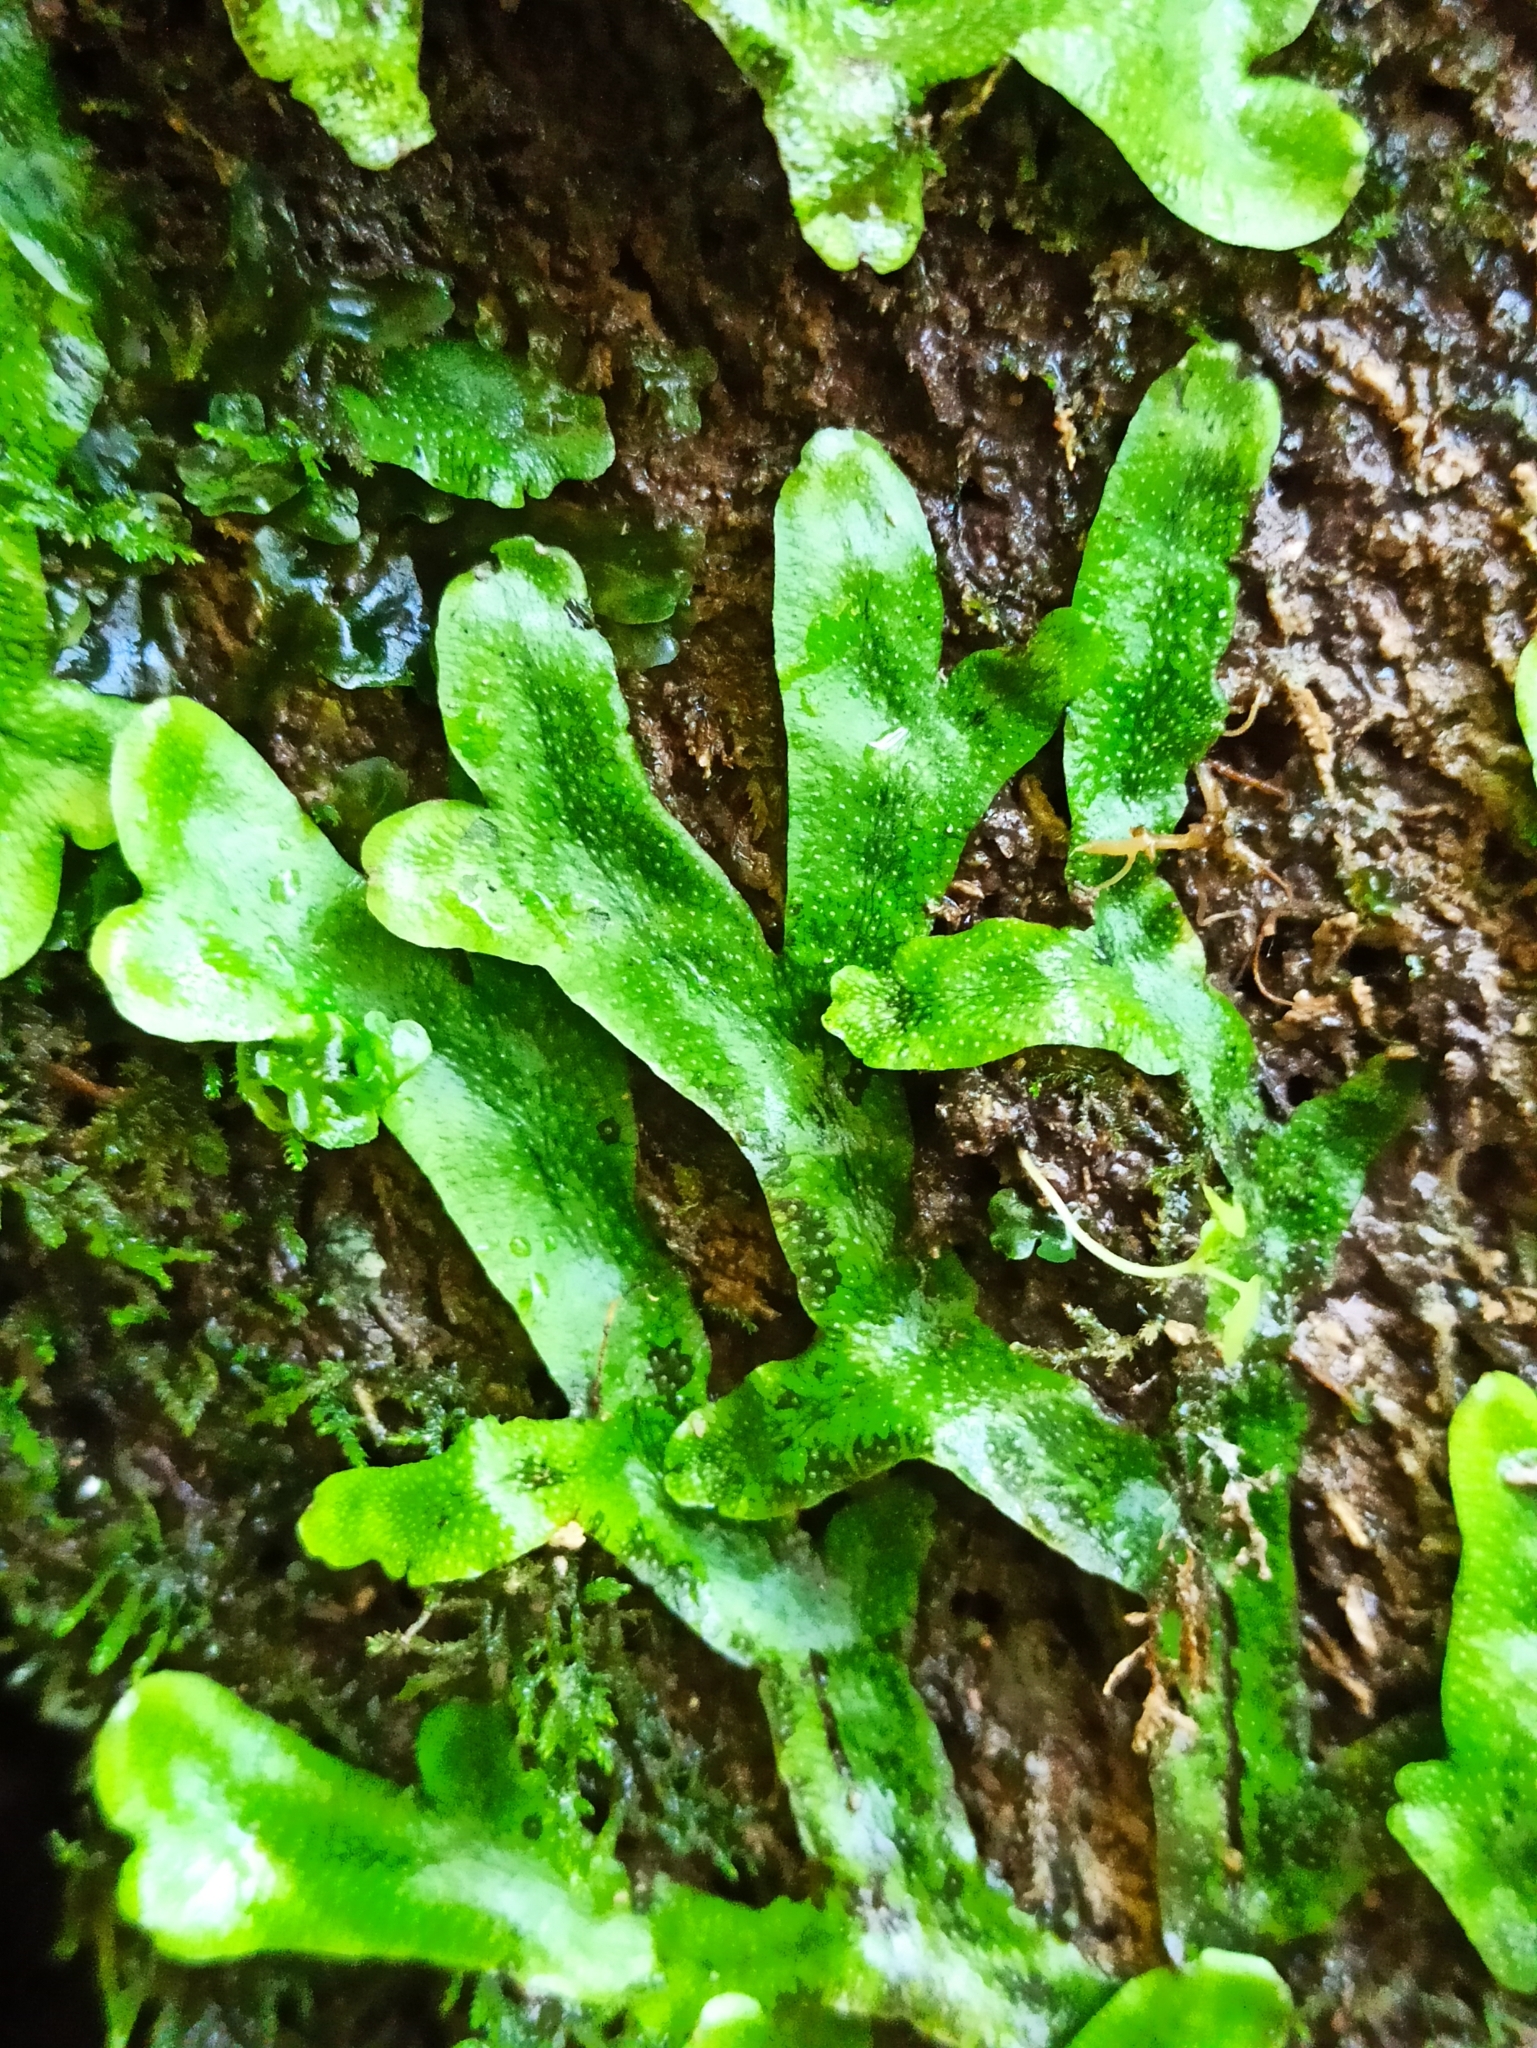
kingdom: Plantae
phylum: Marchantiophyta
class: Marchantiopsida
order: Marchantiales
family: Conocephalaceae
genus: Conocephalum
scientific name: Conocephalum conicum
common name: Great scented liverwort
